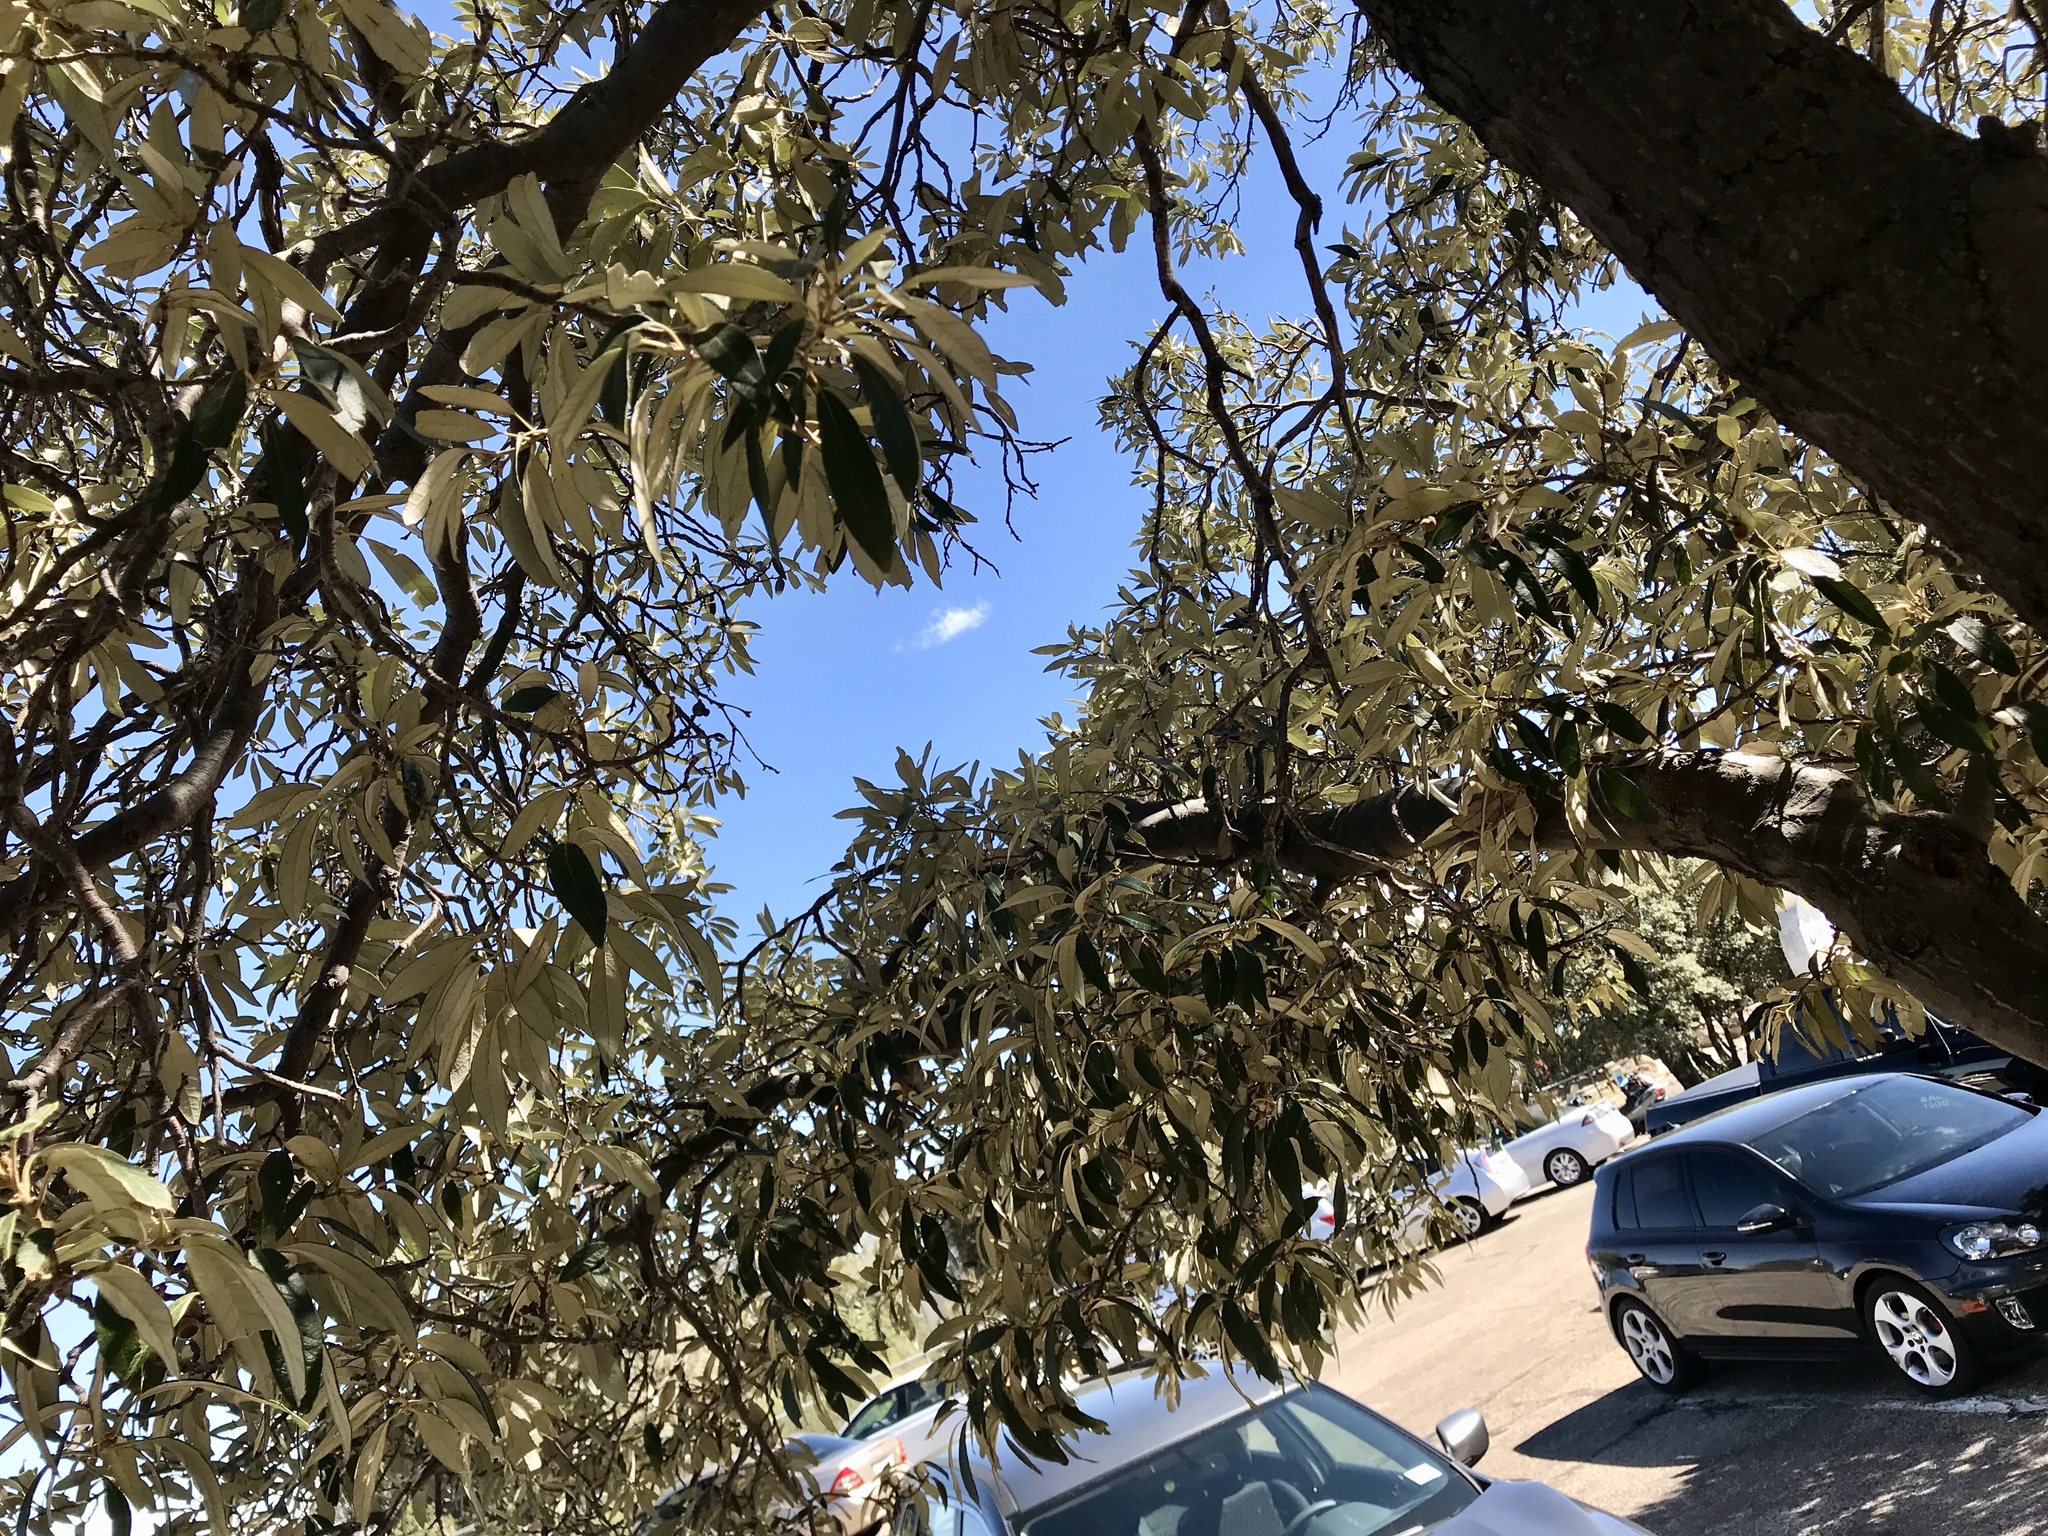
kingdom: Plantae
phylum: Tracheophyta
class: Magnoliopsida
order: Fagales
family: Fagaceae
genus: Quercus
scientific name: Quercus hypoleucoides
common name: Silverleaf oak
